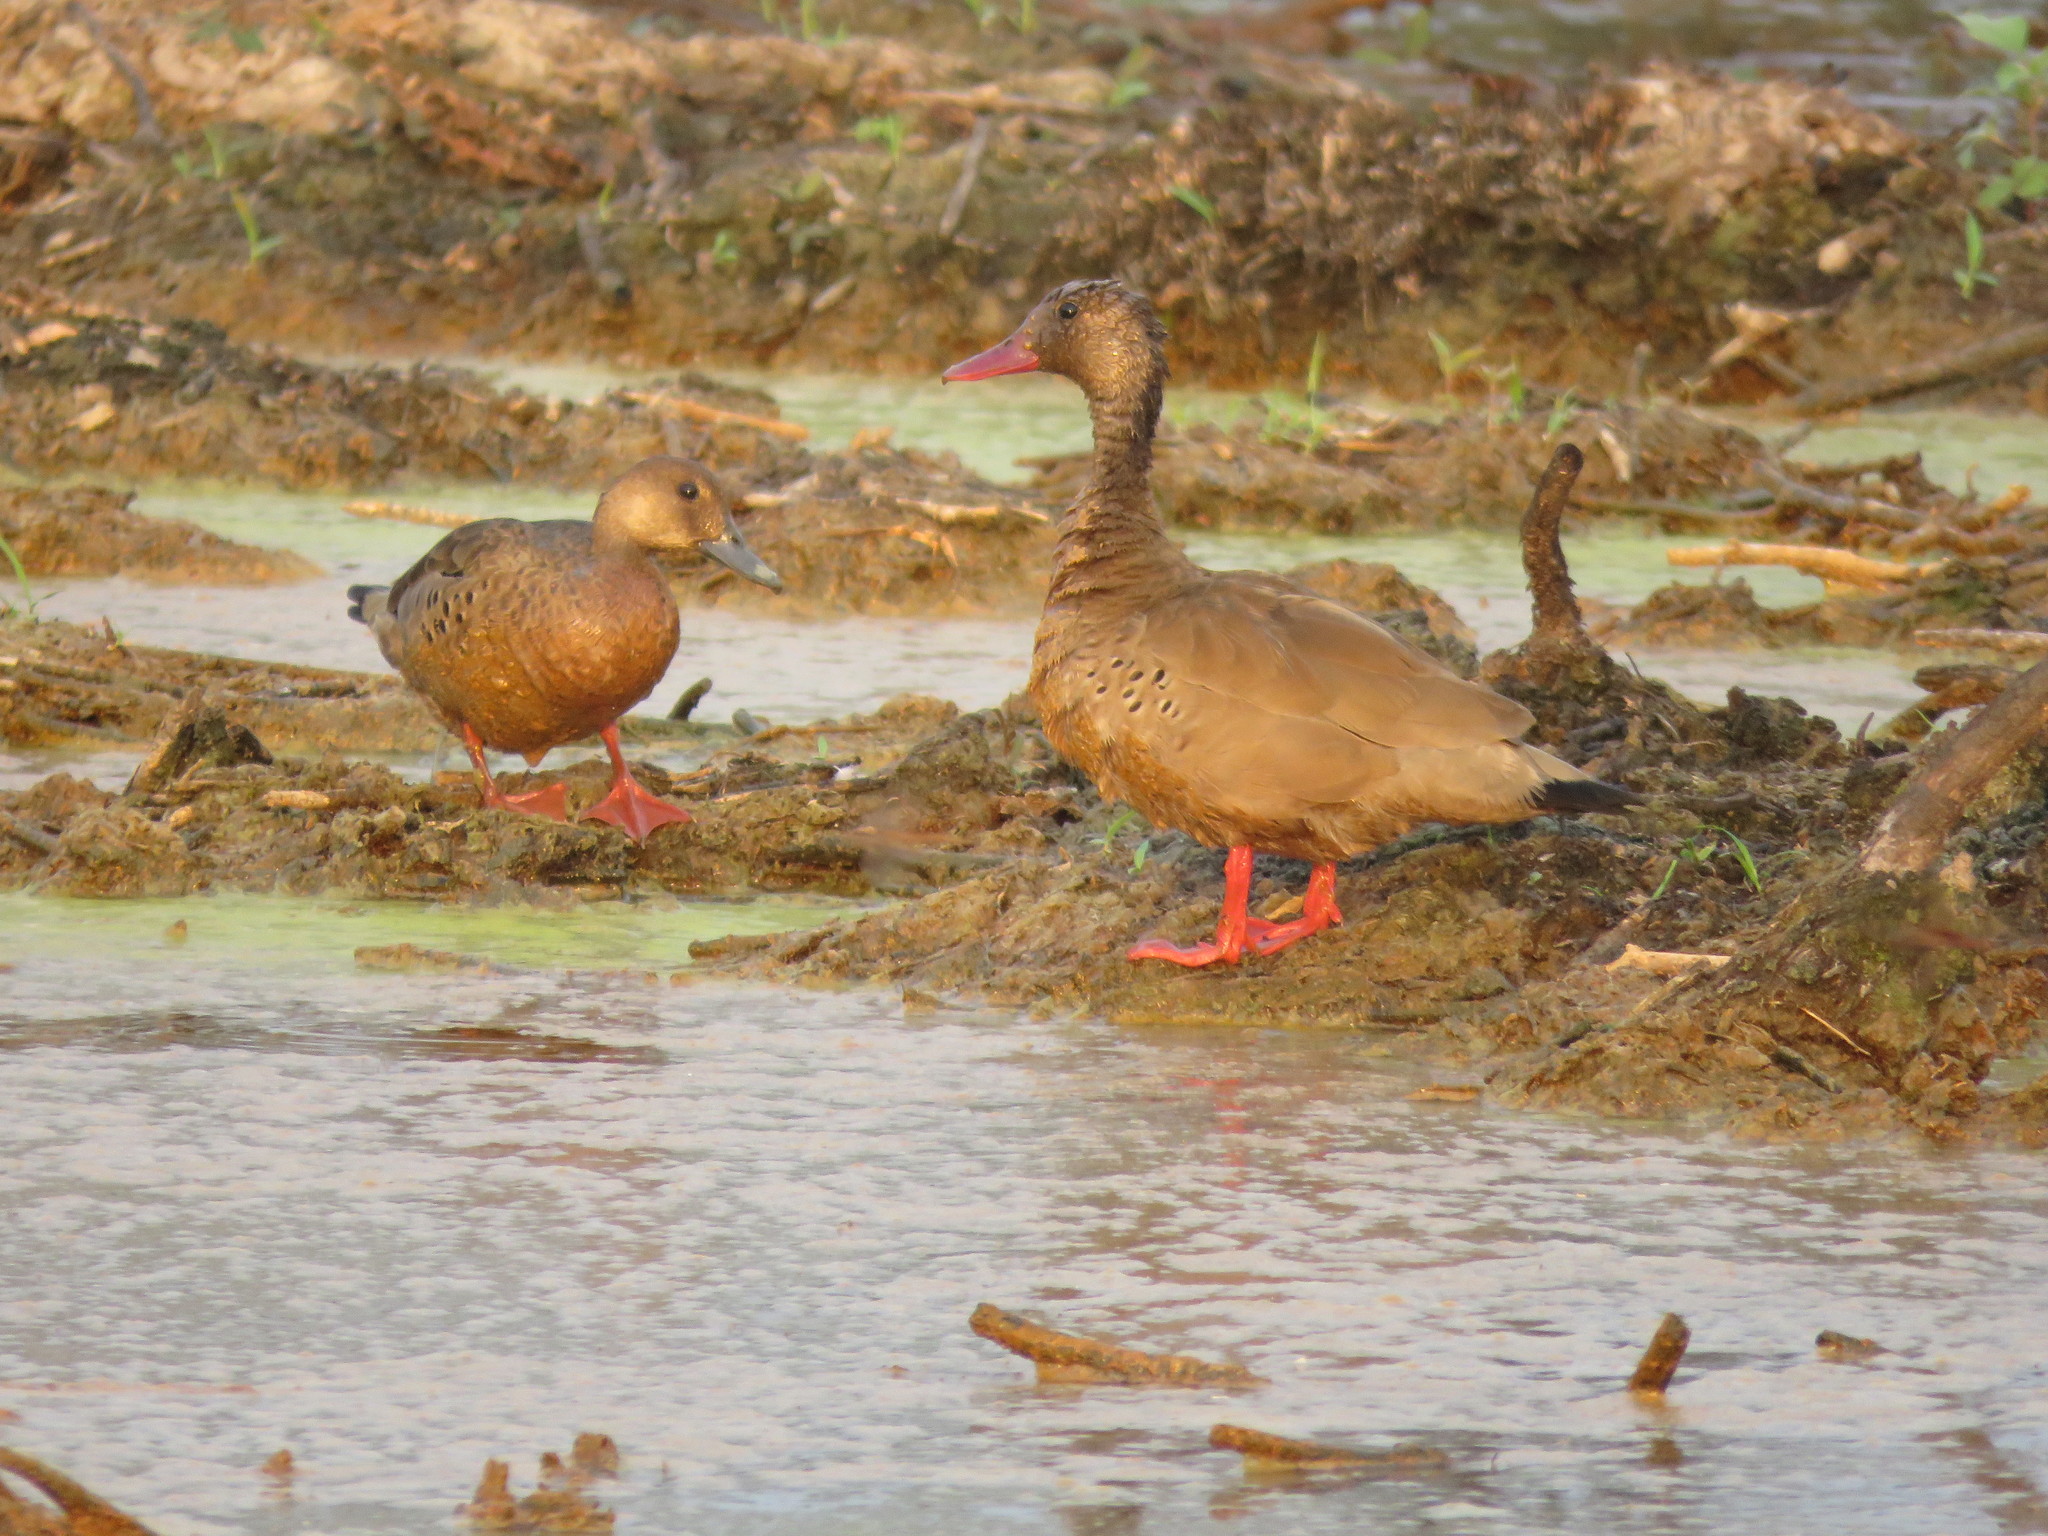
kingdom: Animalia
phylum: Chordata
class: Aves
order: Anseriformes
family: Anatidae
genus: Amazonetta
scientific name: Amazonetta brasiliensis
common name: Brazilian teal
